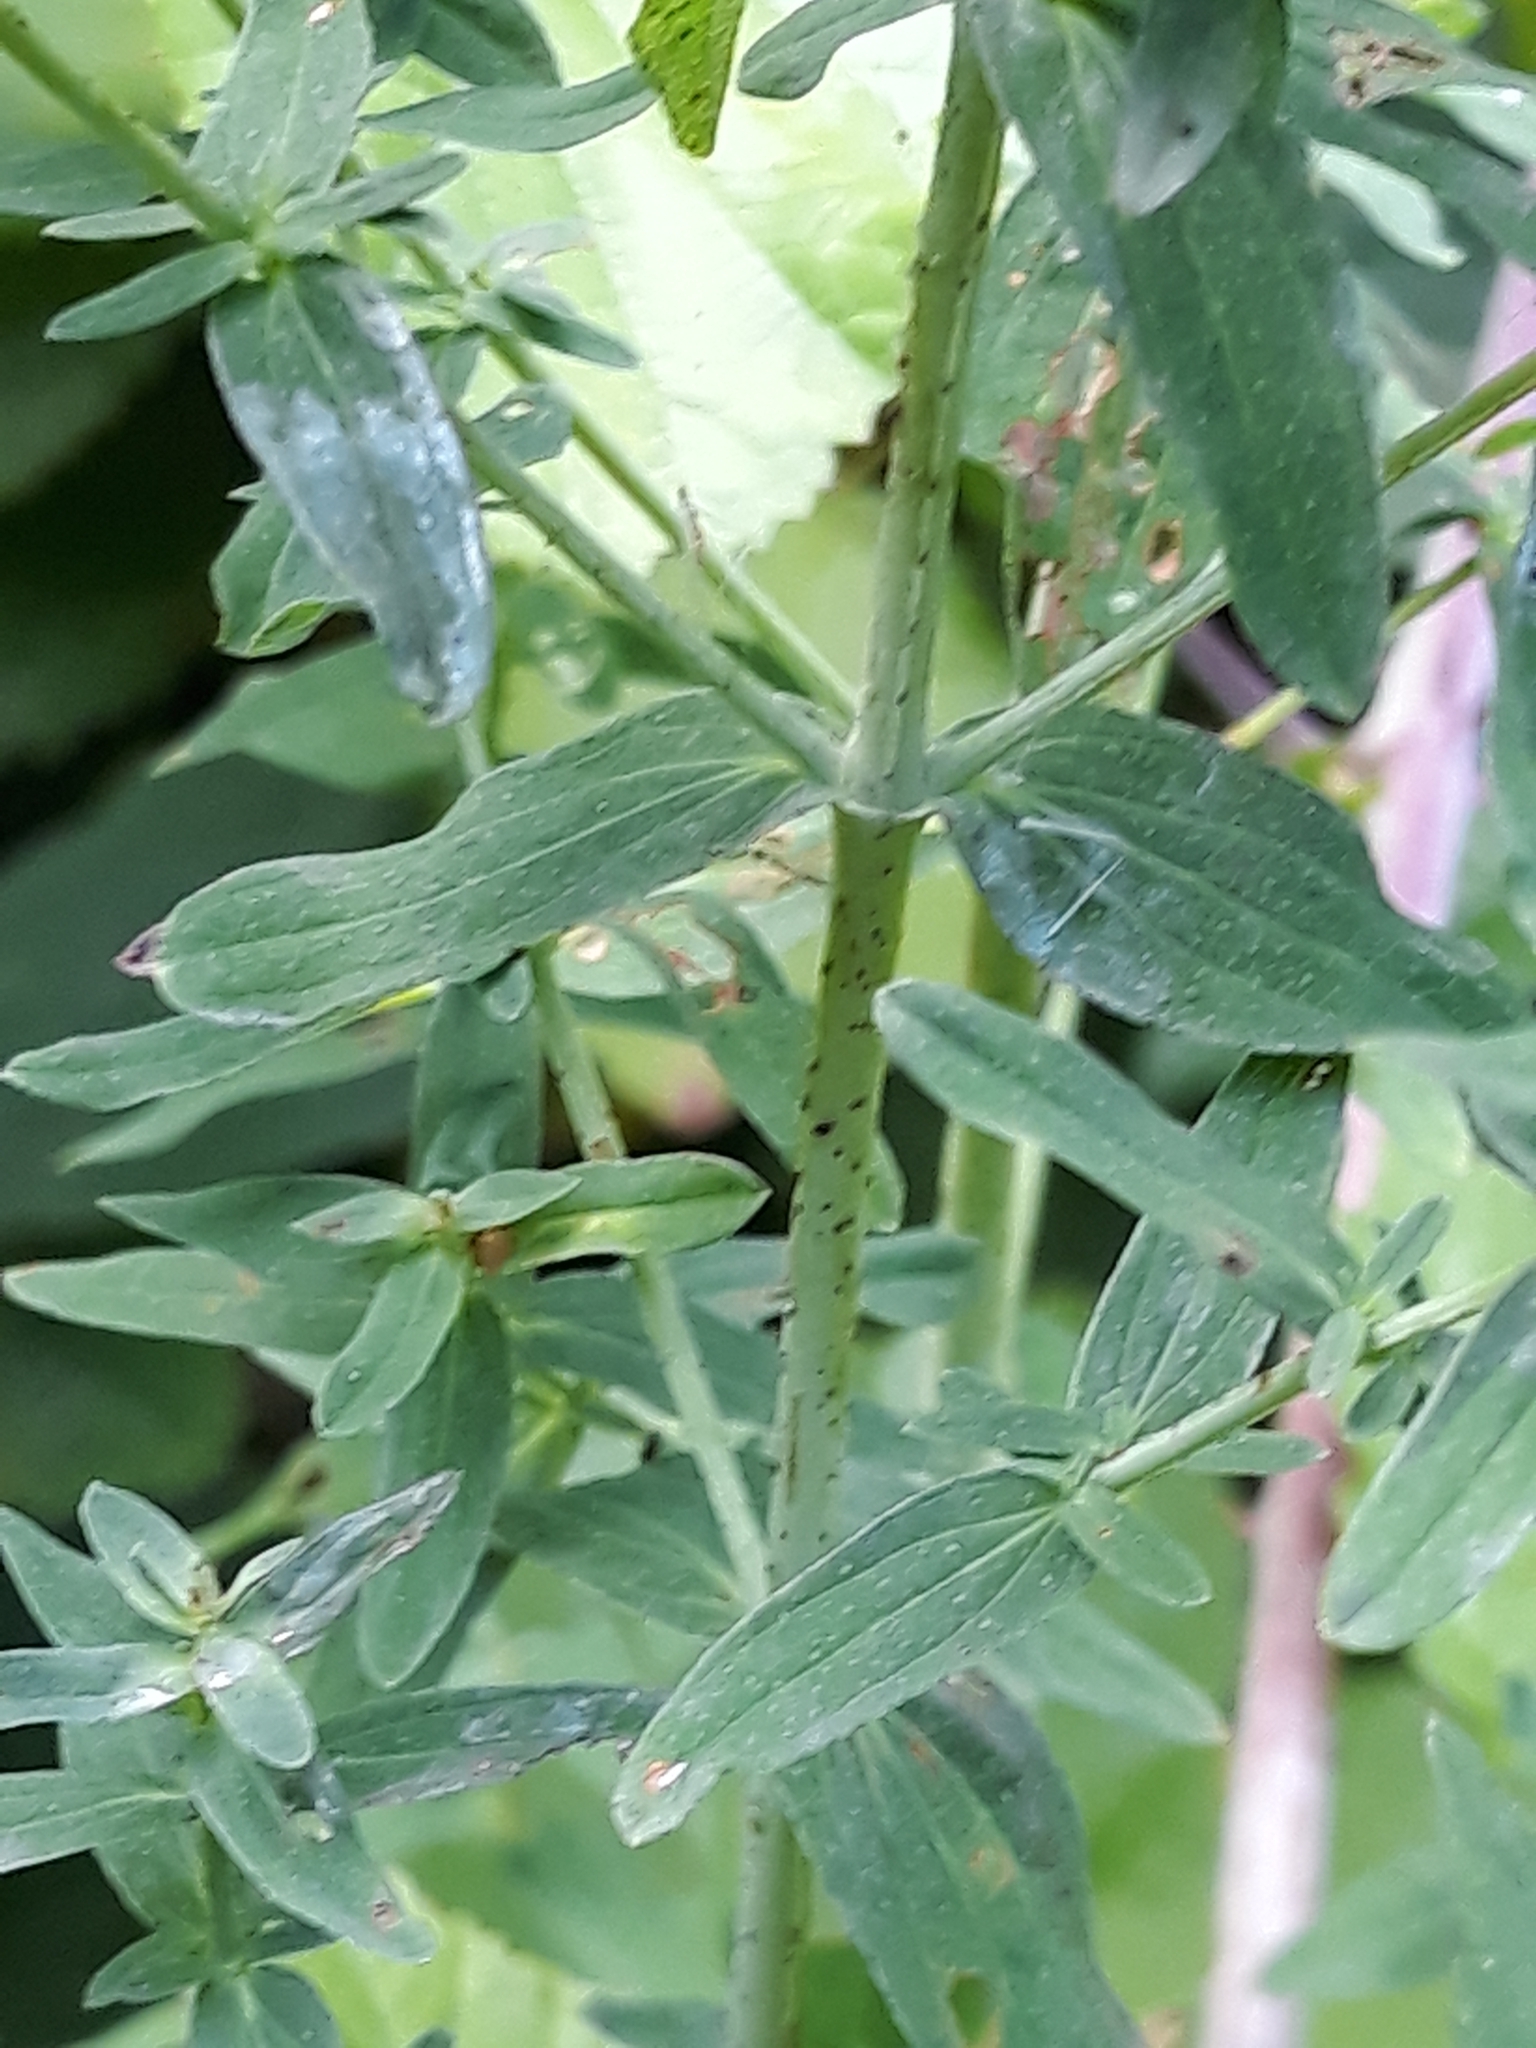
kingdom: Plantae
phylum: Tracheophyta
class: Magnoliopsida
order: Malpighiales
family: Hypericaceae
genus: Hypericum
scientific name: Hypericum perforatum
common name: Common st. johnswort
